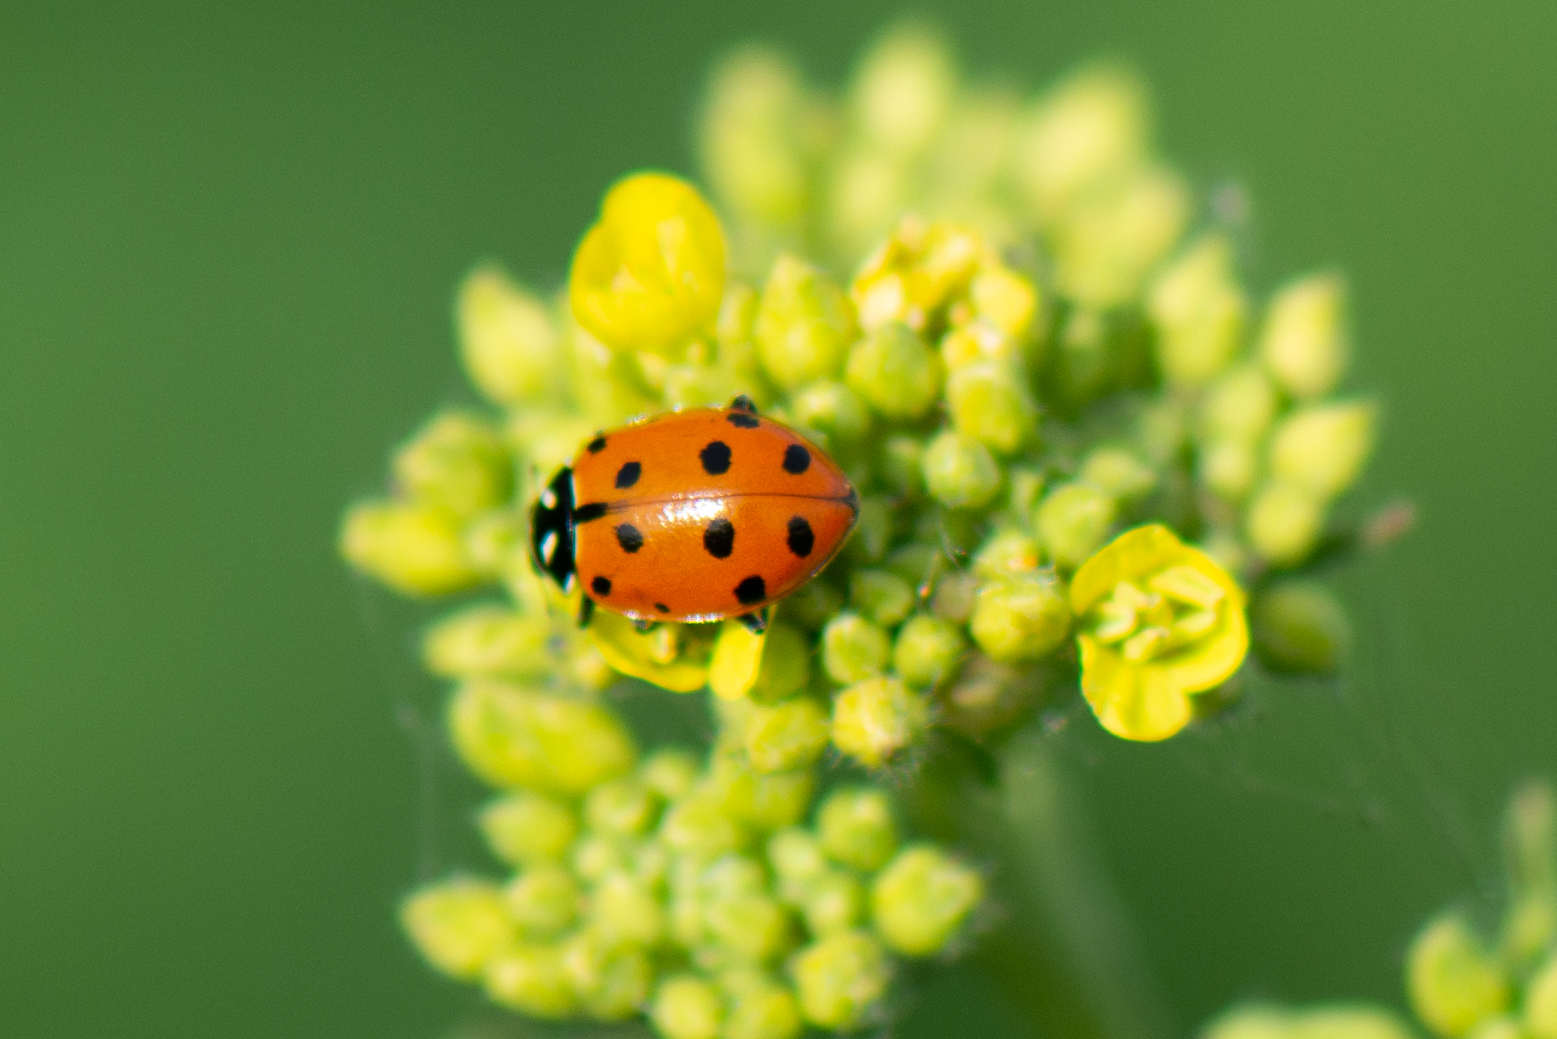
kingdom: Animalia
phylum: Arthropoda
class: Insecta
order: Coleoptera
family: Coccinellidae
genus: Hippodamia
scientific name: Hippodamia convergens
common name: Convergent lady beetle
